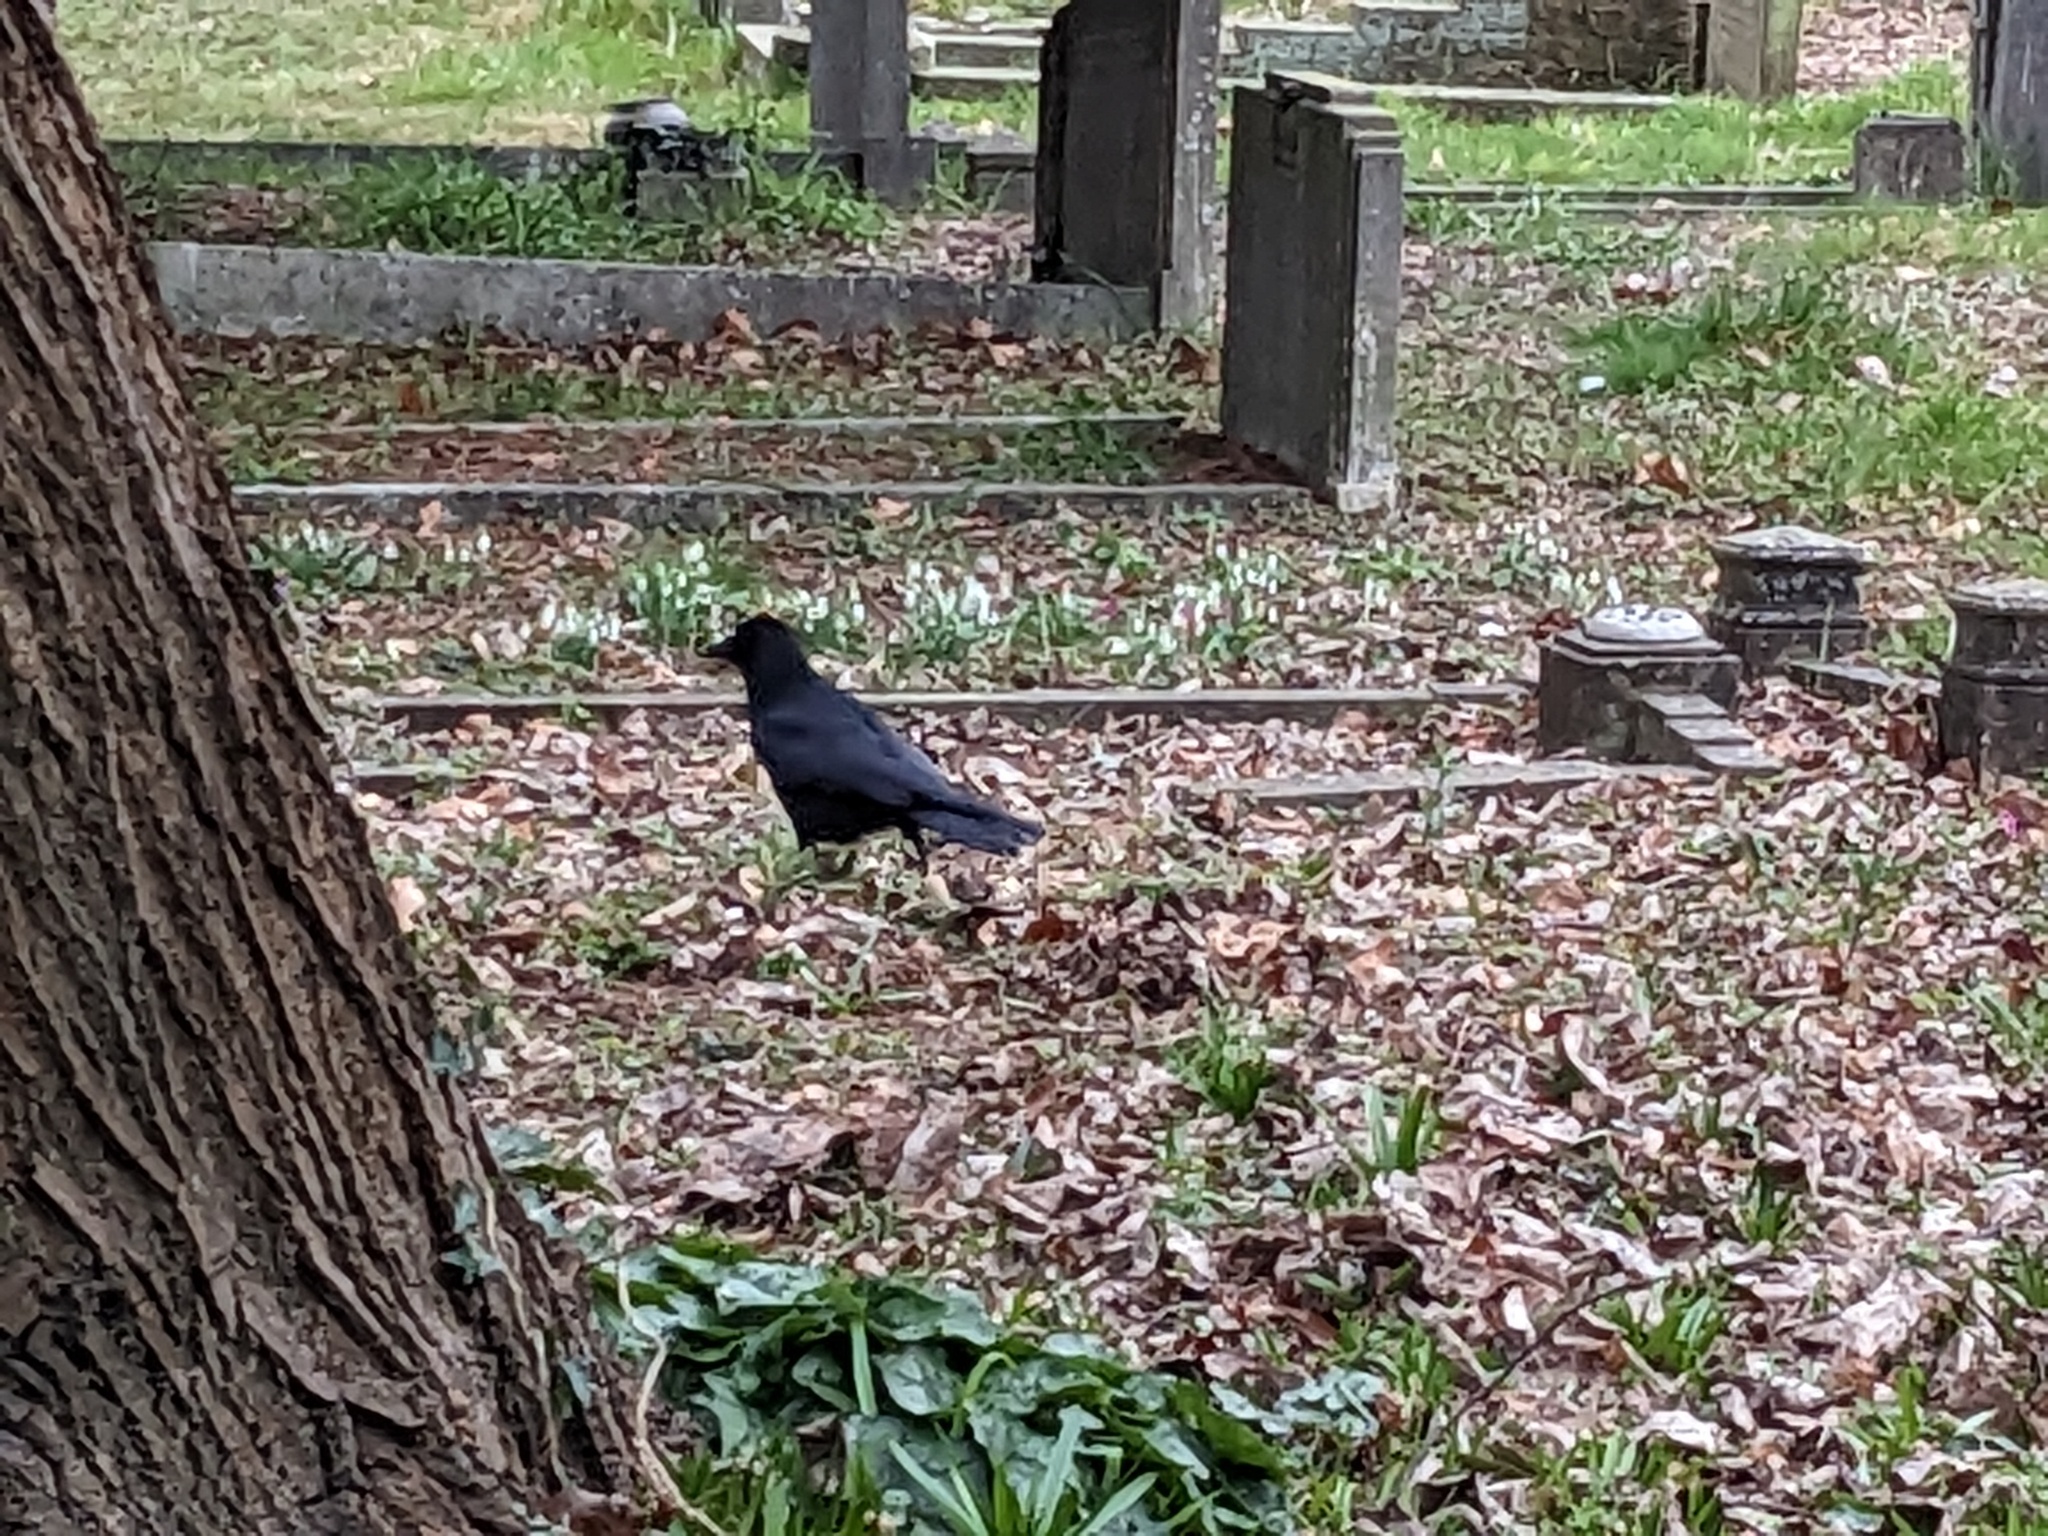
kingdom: Animalia
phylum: Chordata
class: Aves
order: Passeriformes
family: Corvidae
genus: Corvus
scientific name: Corvus corone
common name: Carrion crow
